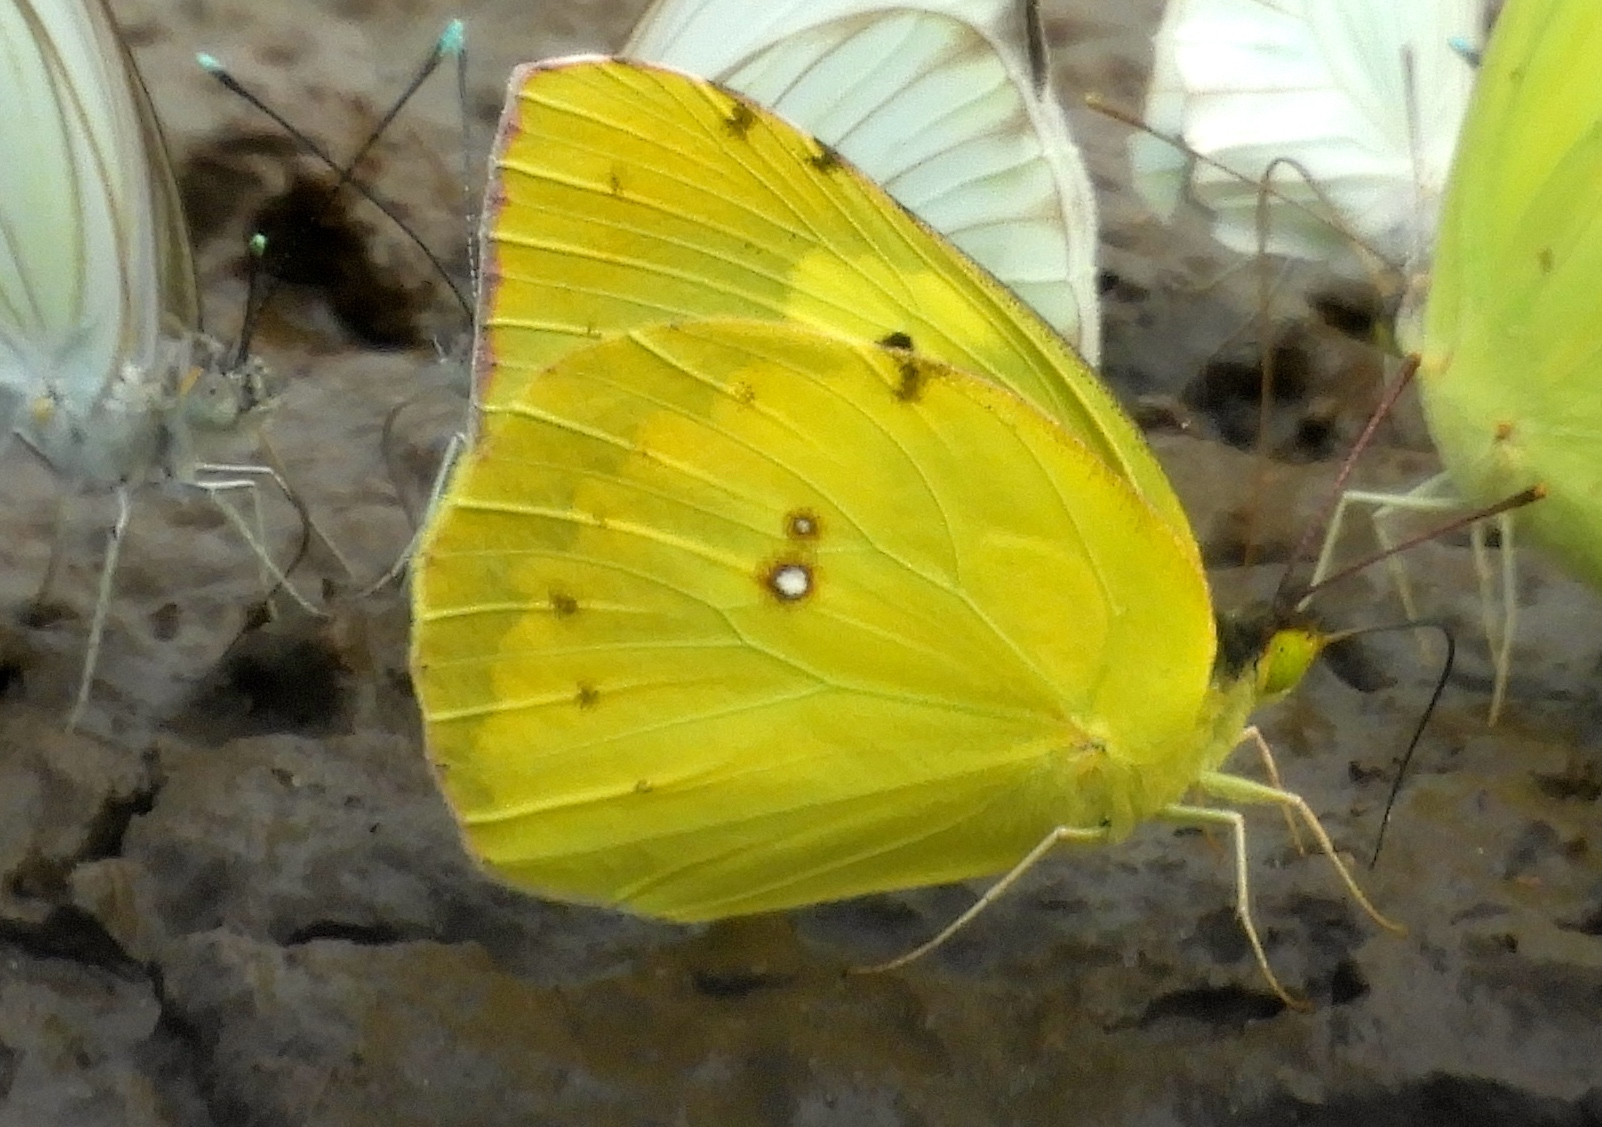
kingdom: Animalia
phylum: Arthropoda
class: Insecta
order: Lepidoptera
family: Pieridae
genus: Zerene
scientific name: Zerene cesonia
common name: Southern dogface
